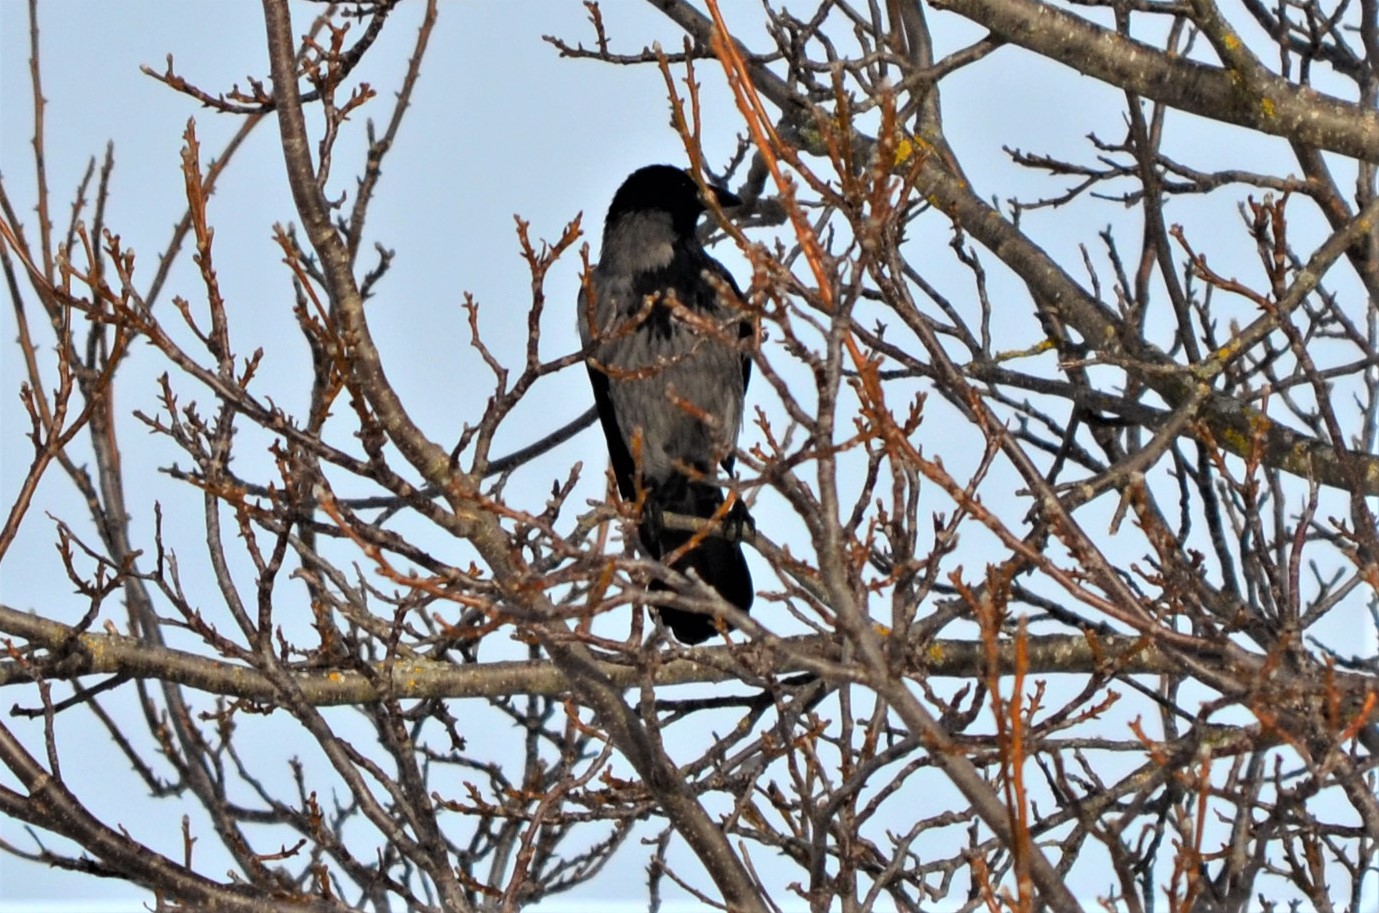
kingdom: Animalia
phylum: Chordata
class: Aves
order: Passeriformes
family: Corvidae
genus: Corvus
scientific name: Corvus cornix
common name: Hooded crow
